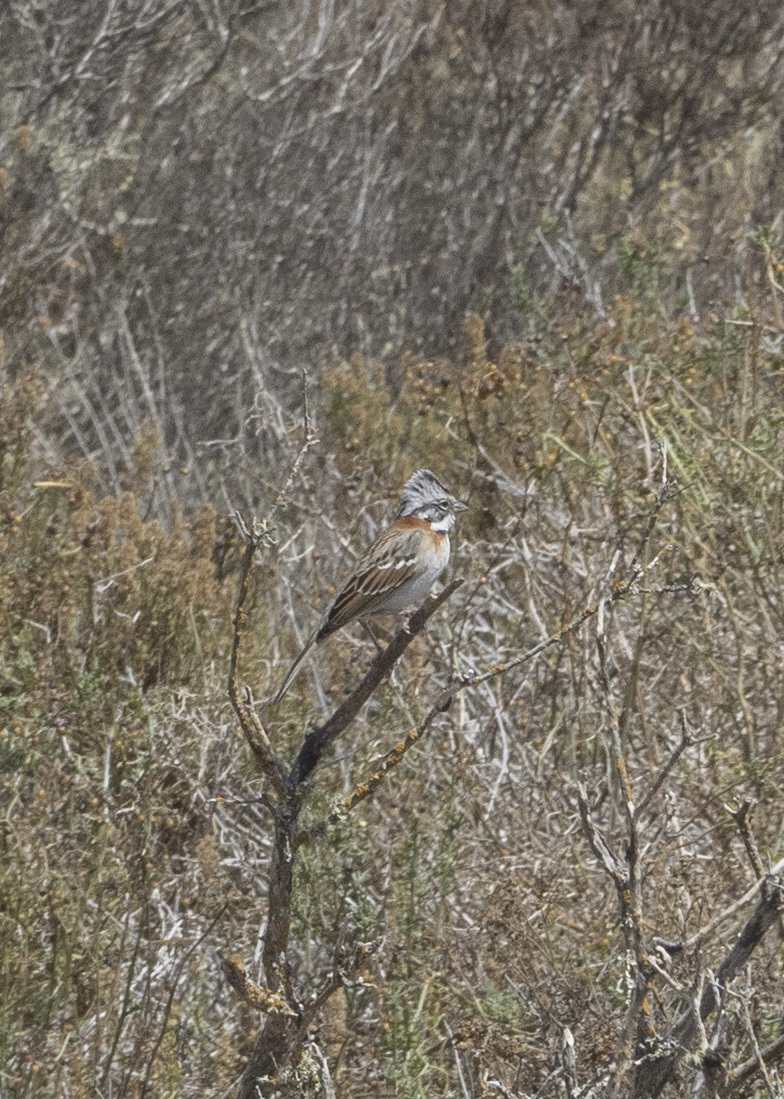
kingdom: Animalia
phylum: Chordata
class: Aves
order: Passeriformes
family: Passerellidae
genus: Zonotrichia
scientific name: Zonotrichia capensis
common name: Rufous-collared sparrow
